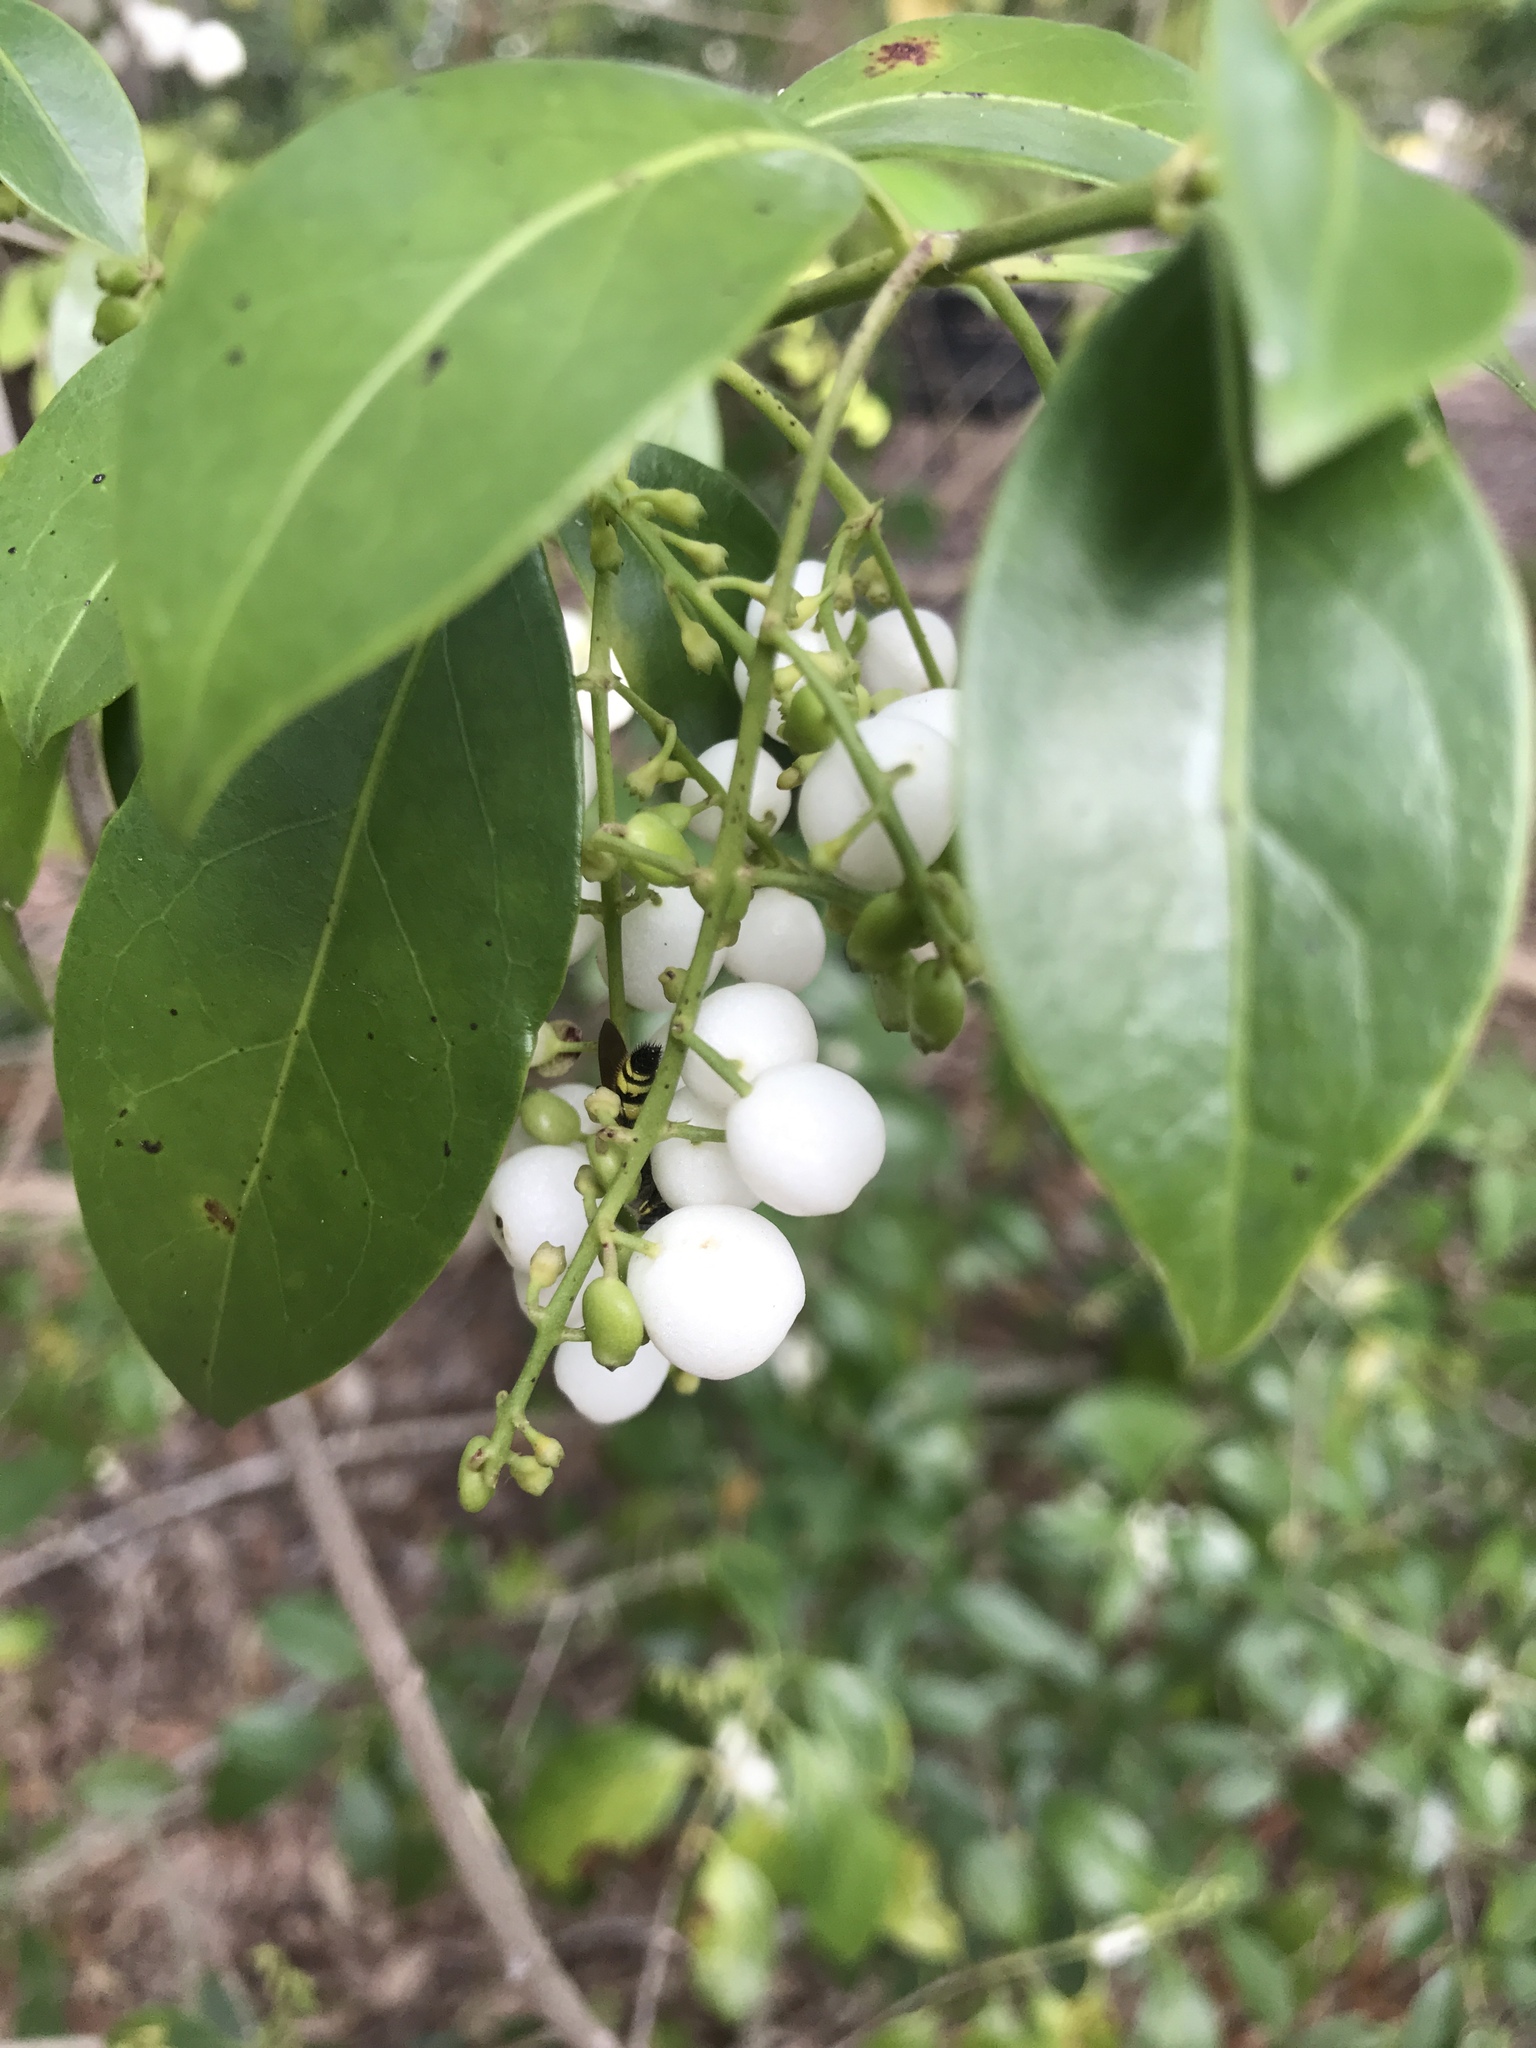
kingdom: Plantae
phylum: Tracheophyta
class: Magnoliopsida
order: Gentianales
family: Rubiaceae
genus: Chiococca
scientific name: Chiococca alba
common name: Snowberry
